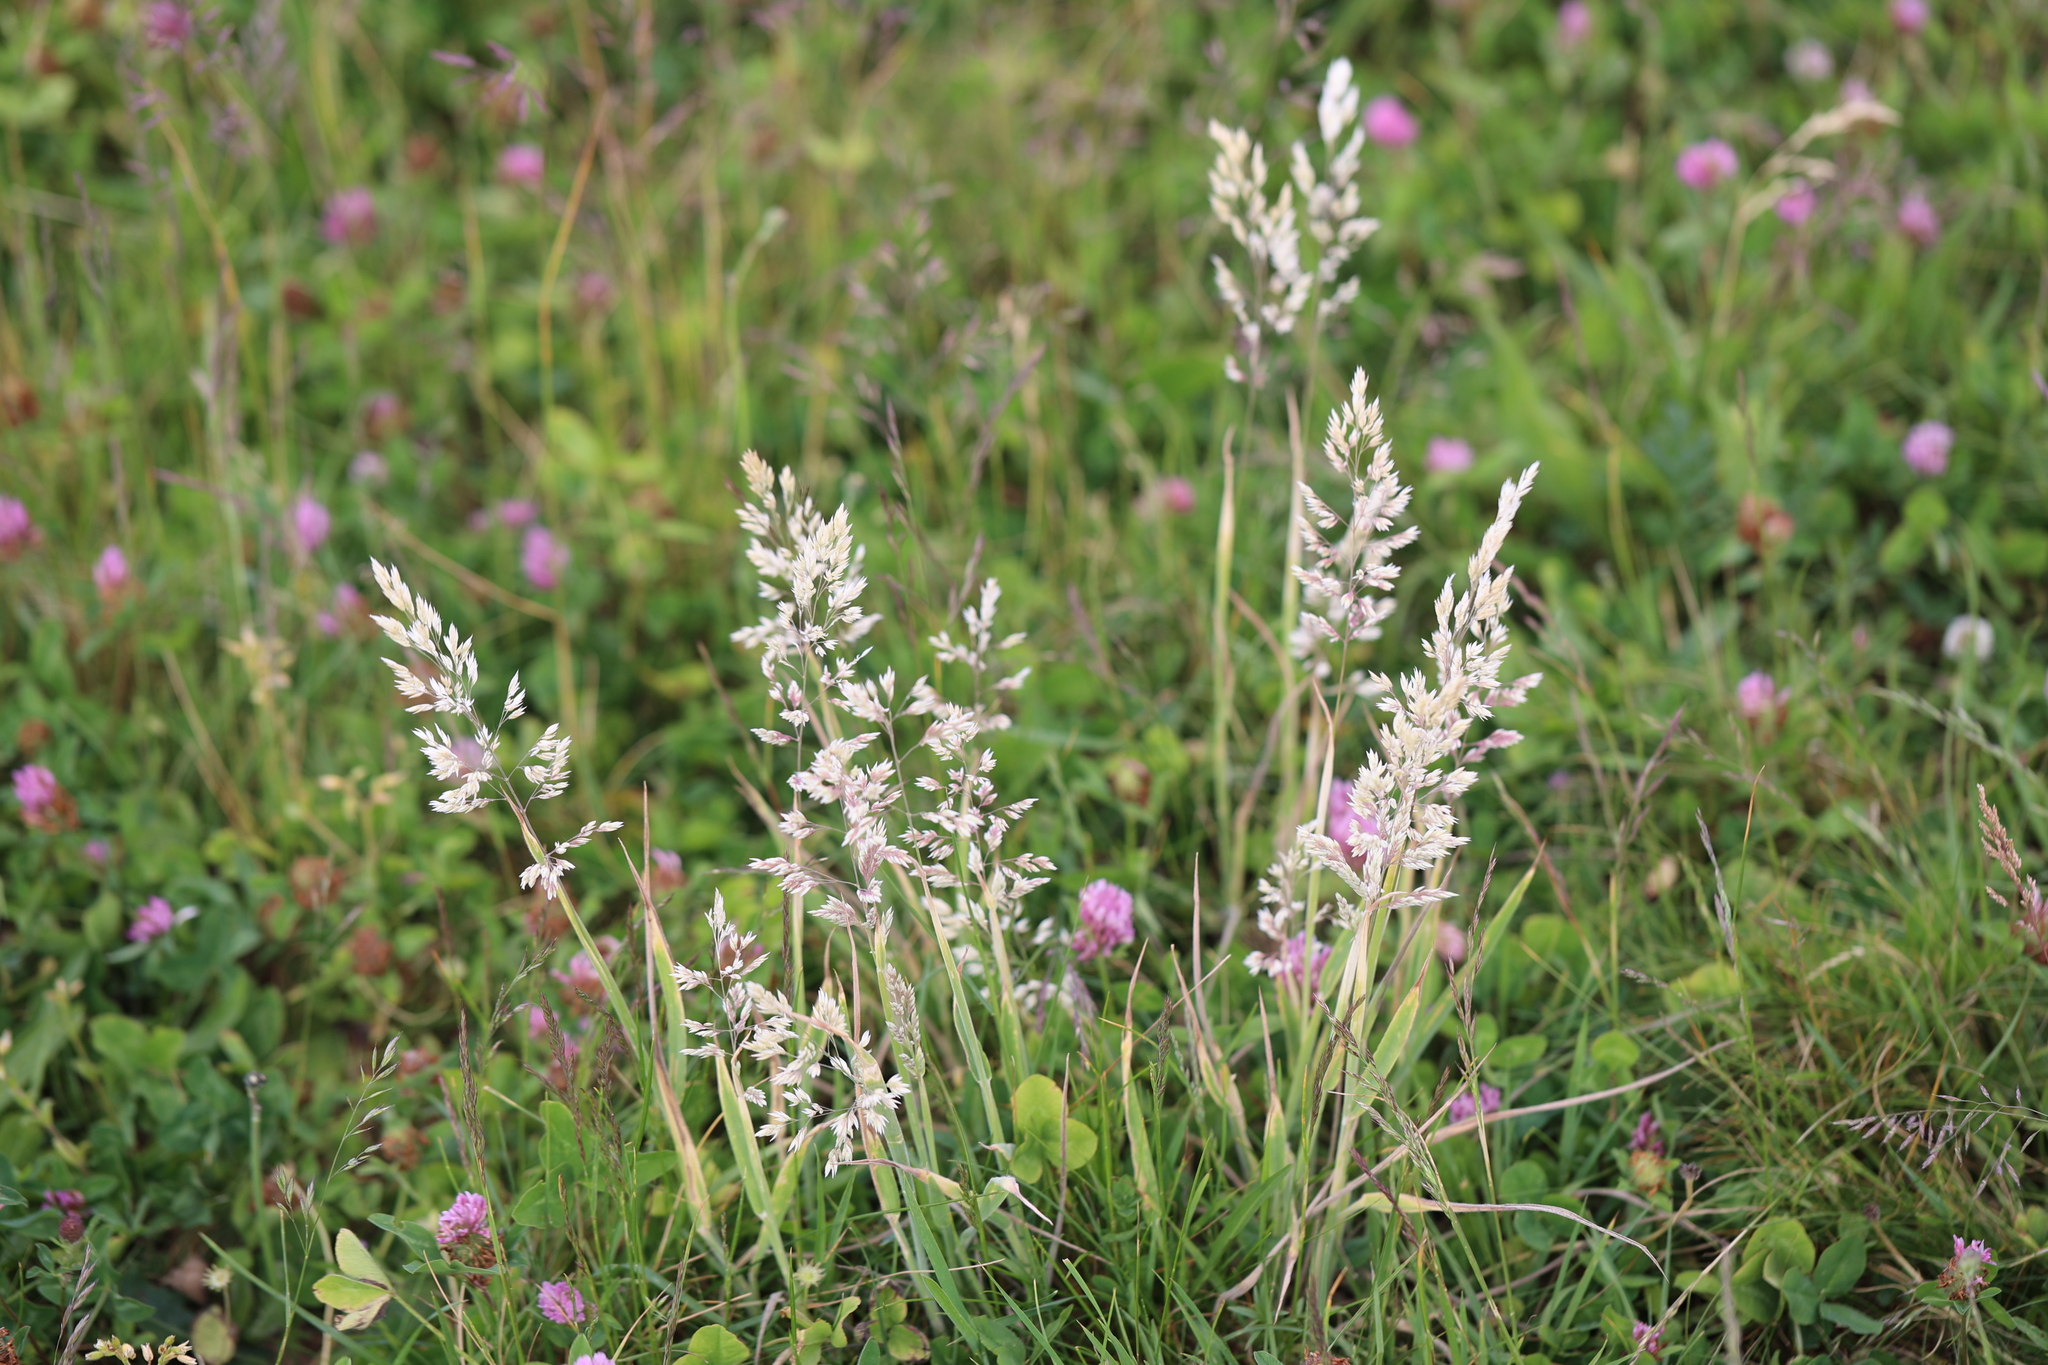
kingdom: Plantae
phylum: Tracheophyta
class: Liliopsida
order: Poales
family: Poaceae
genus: Holcus
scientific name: Holcus lanatus
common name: Yorkshire-fog
